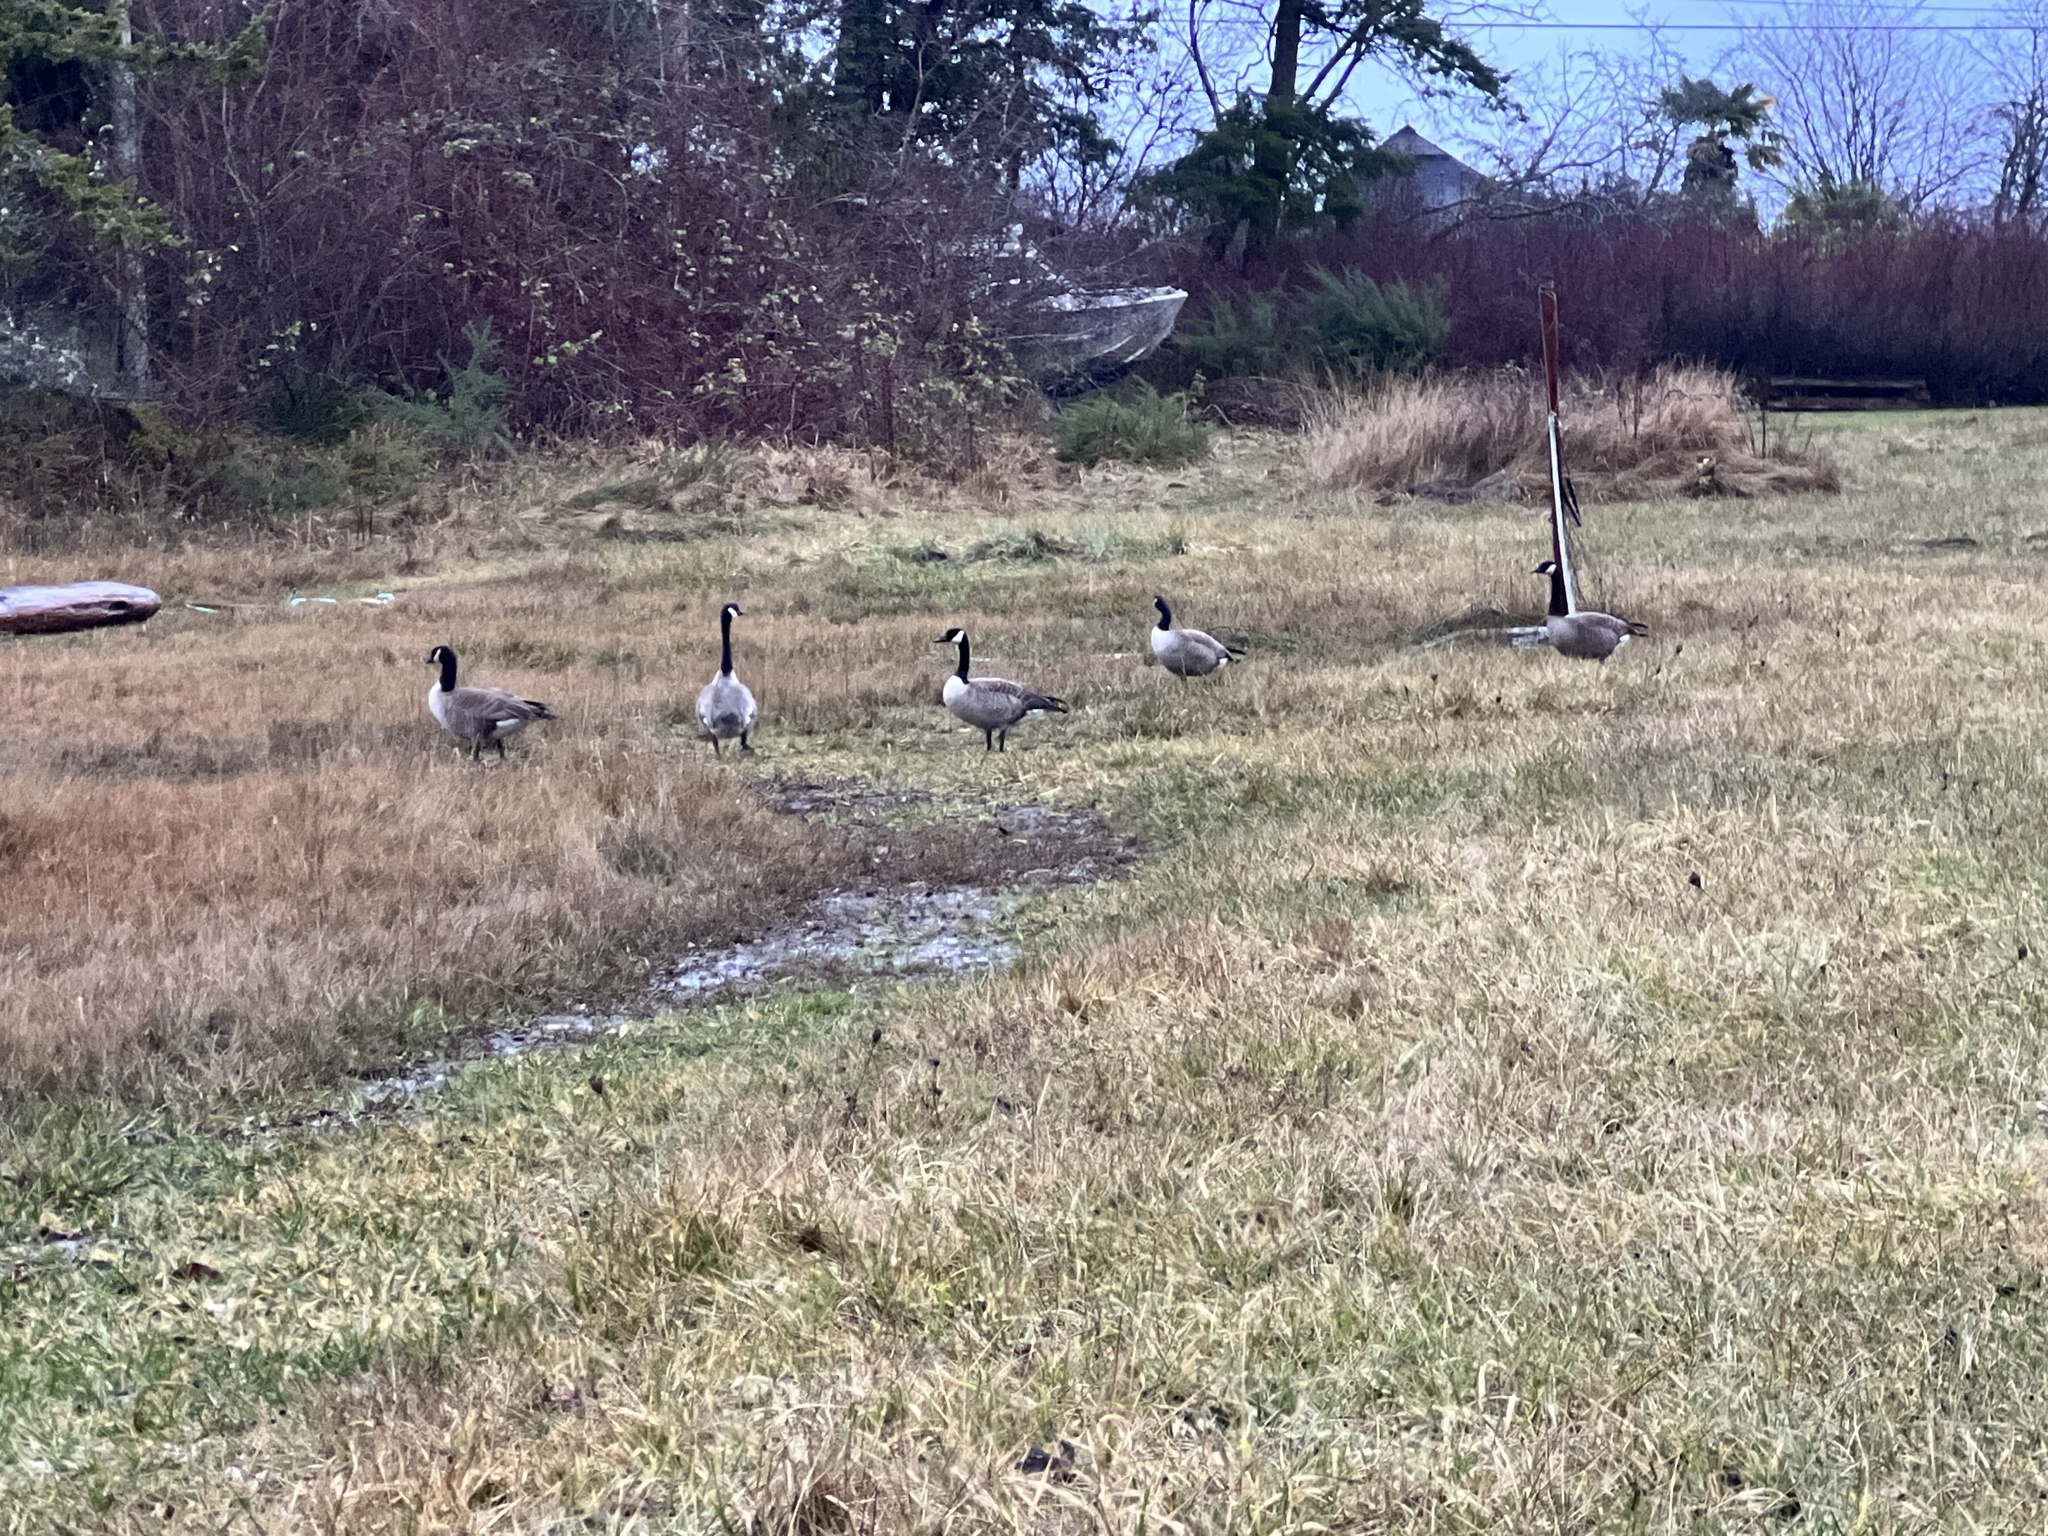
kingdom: Animalia
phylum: Chordata
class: Aves
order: Anseriformes
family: Anatidae
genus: Branta
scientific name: Branta canadensis
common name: Canada goose
